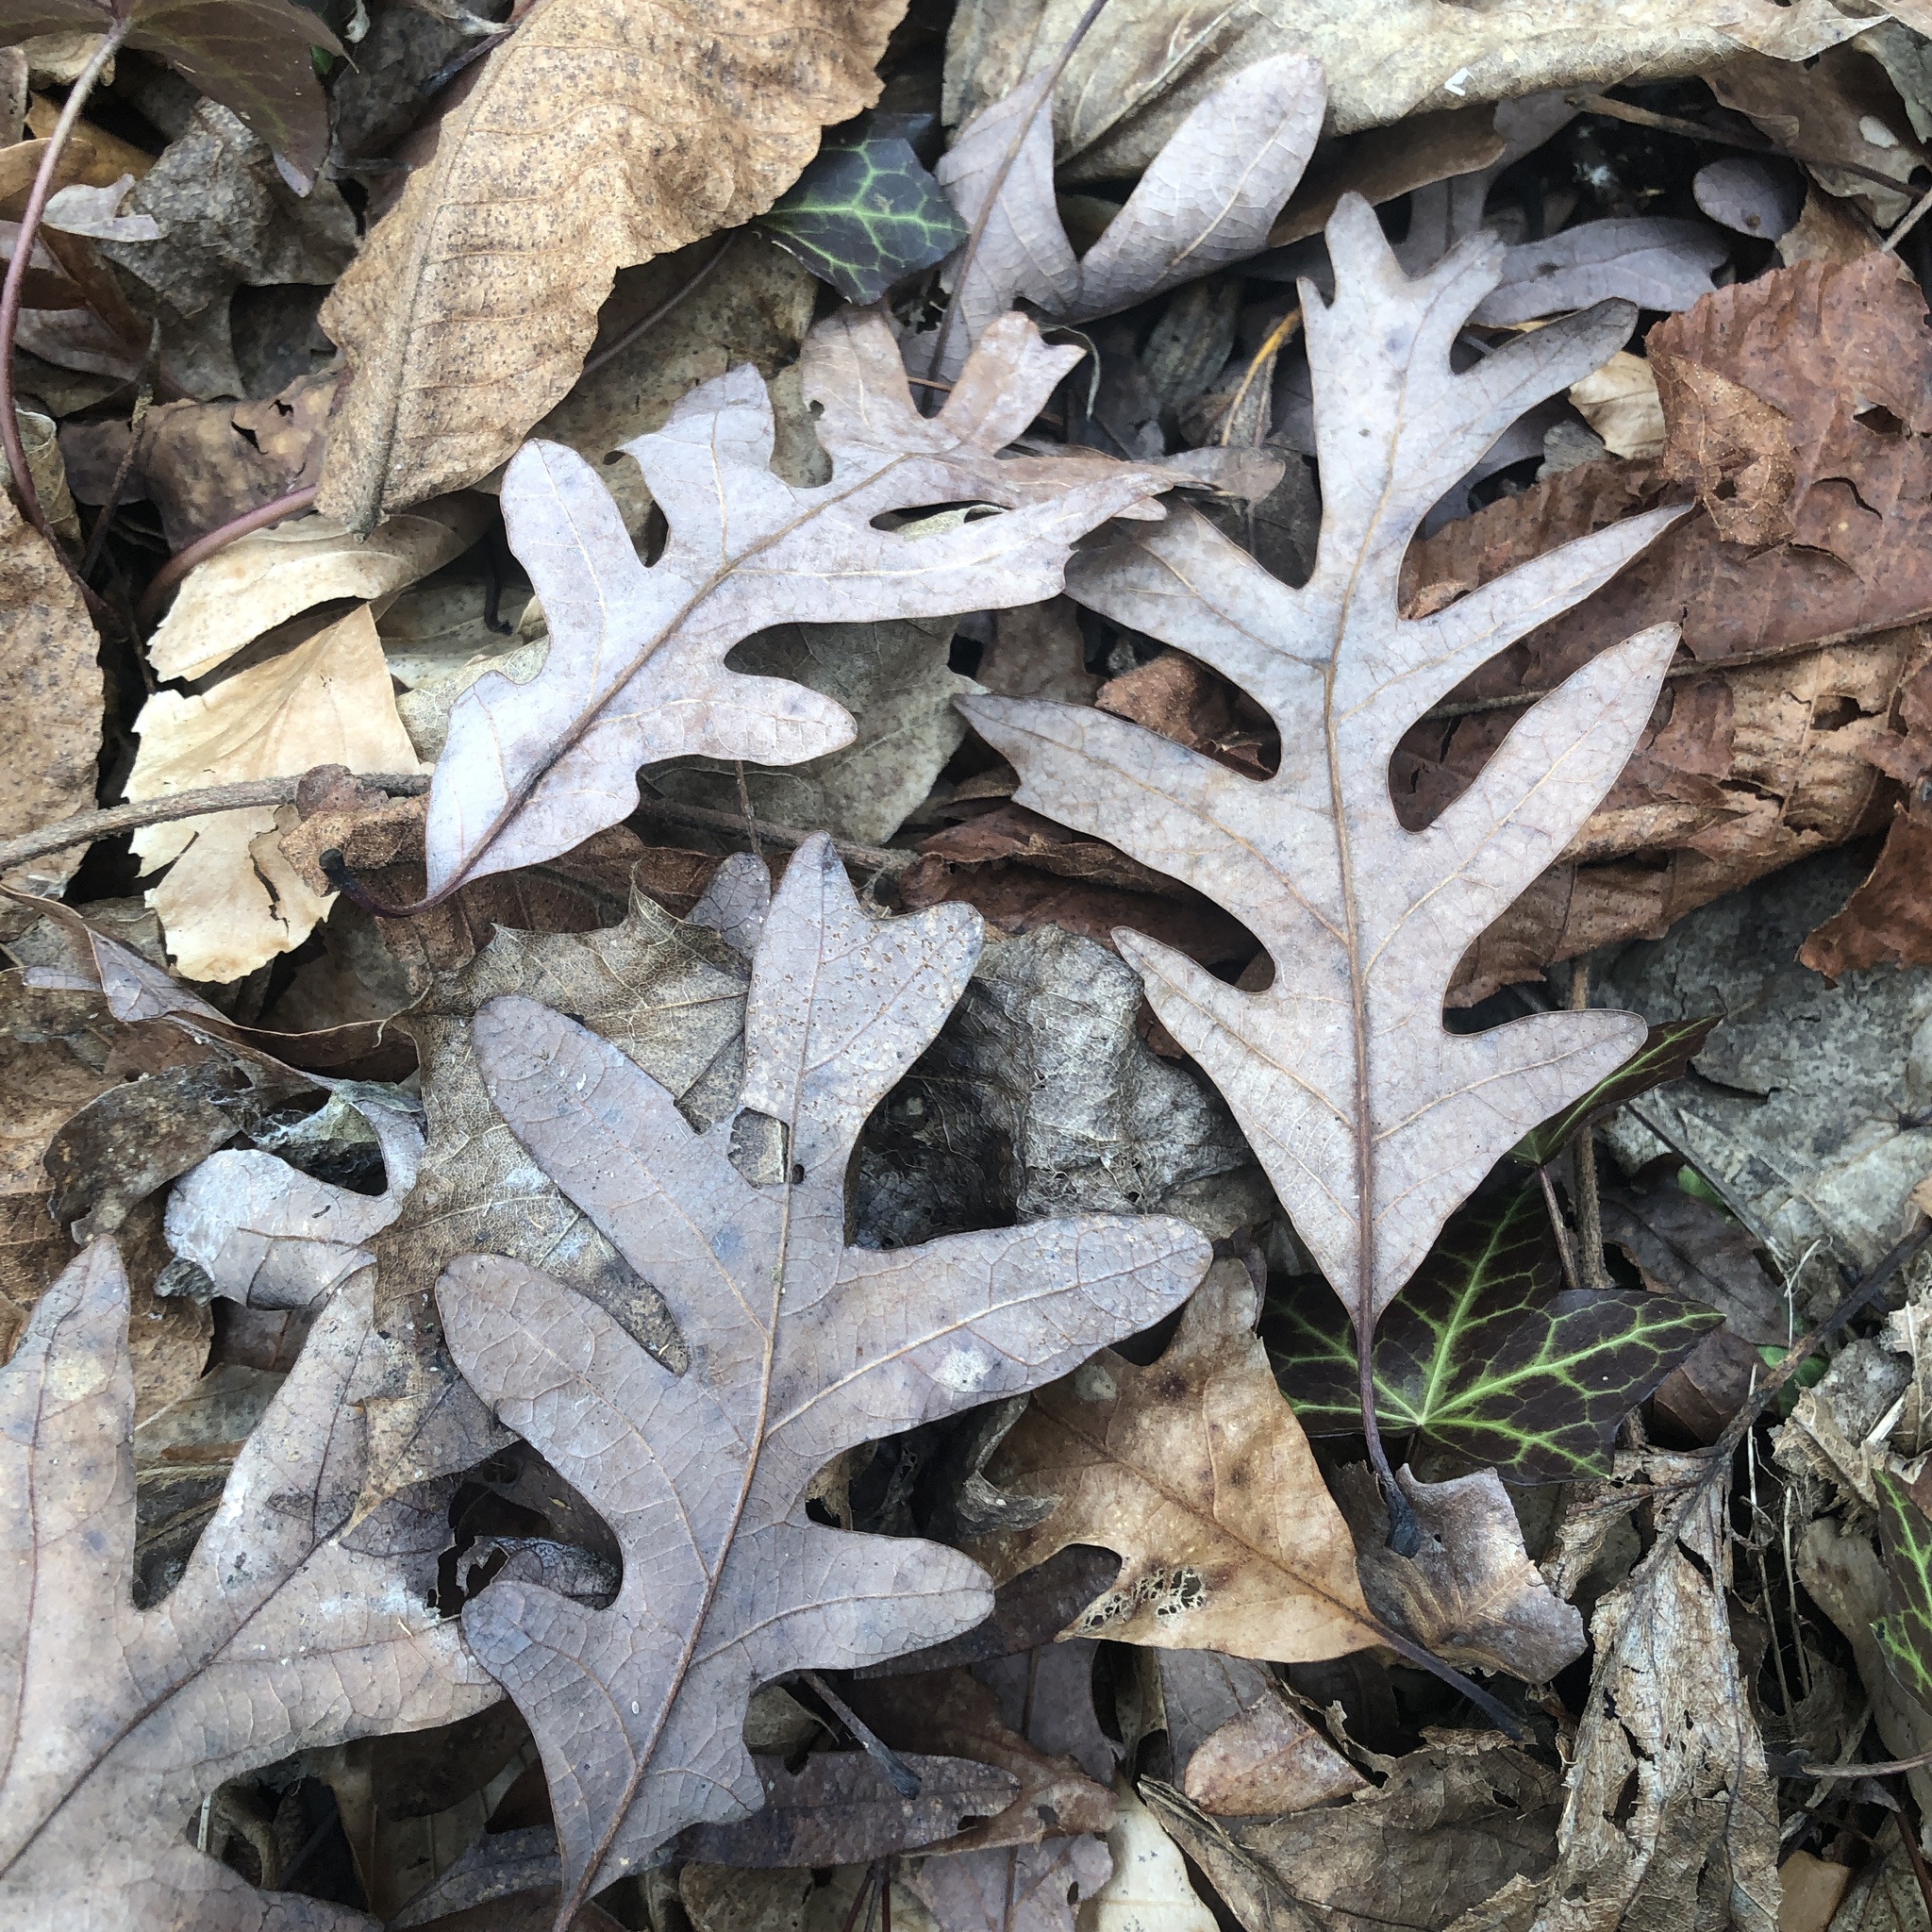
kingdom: Plantae
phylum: Tracheophyta
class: Magnoliopsida
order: Fagales
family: Fagaceae
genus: Quercus
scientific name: Quercus alba
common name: White oak
